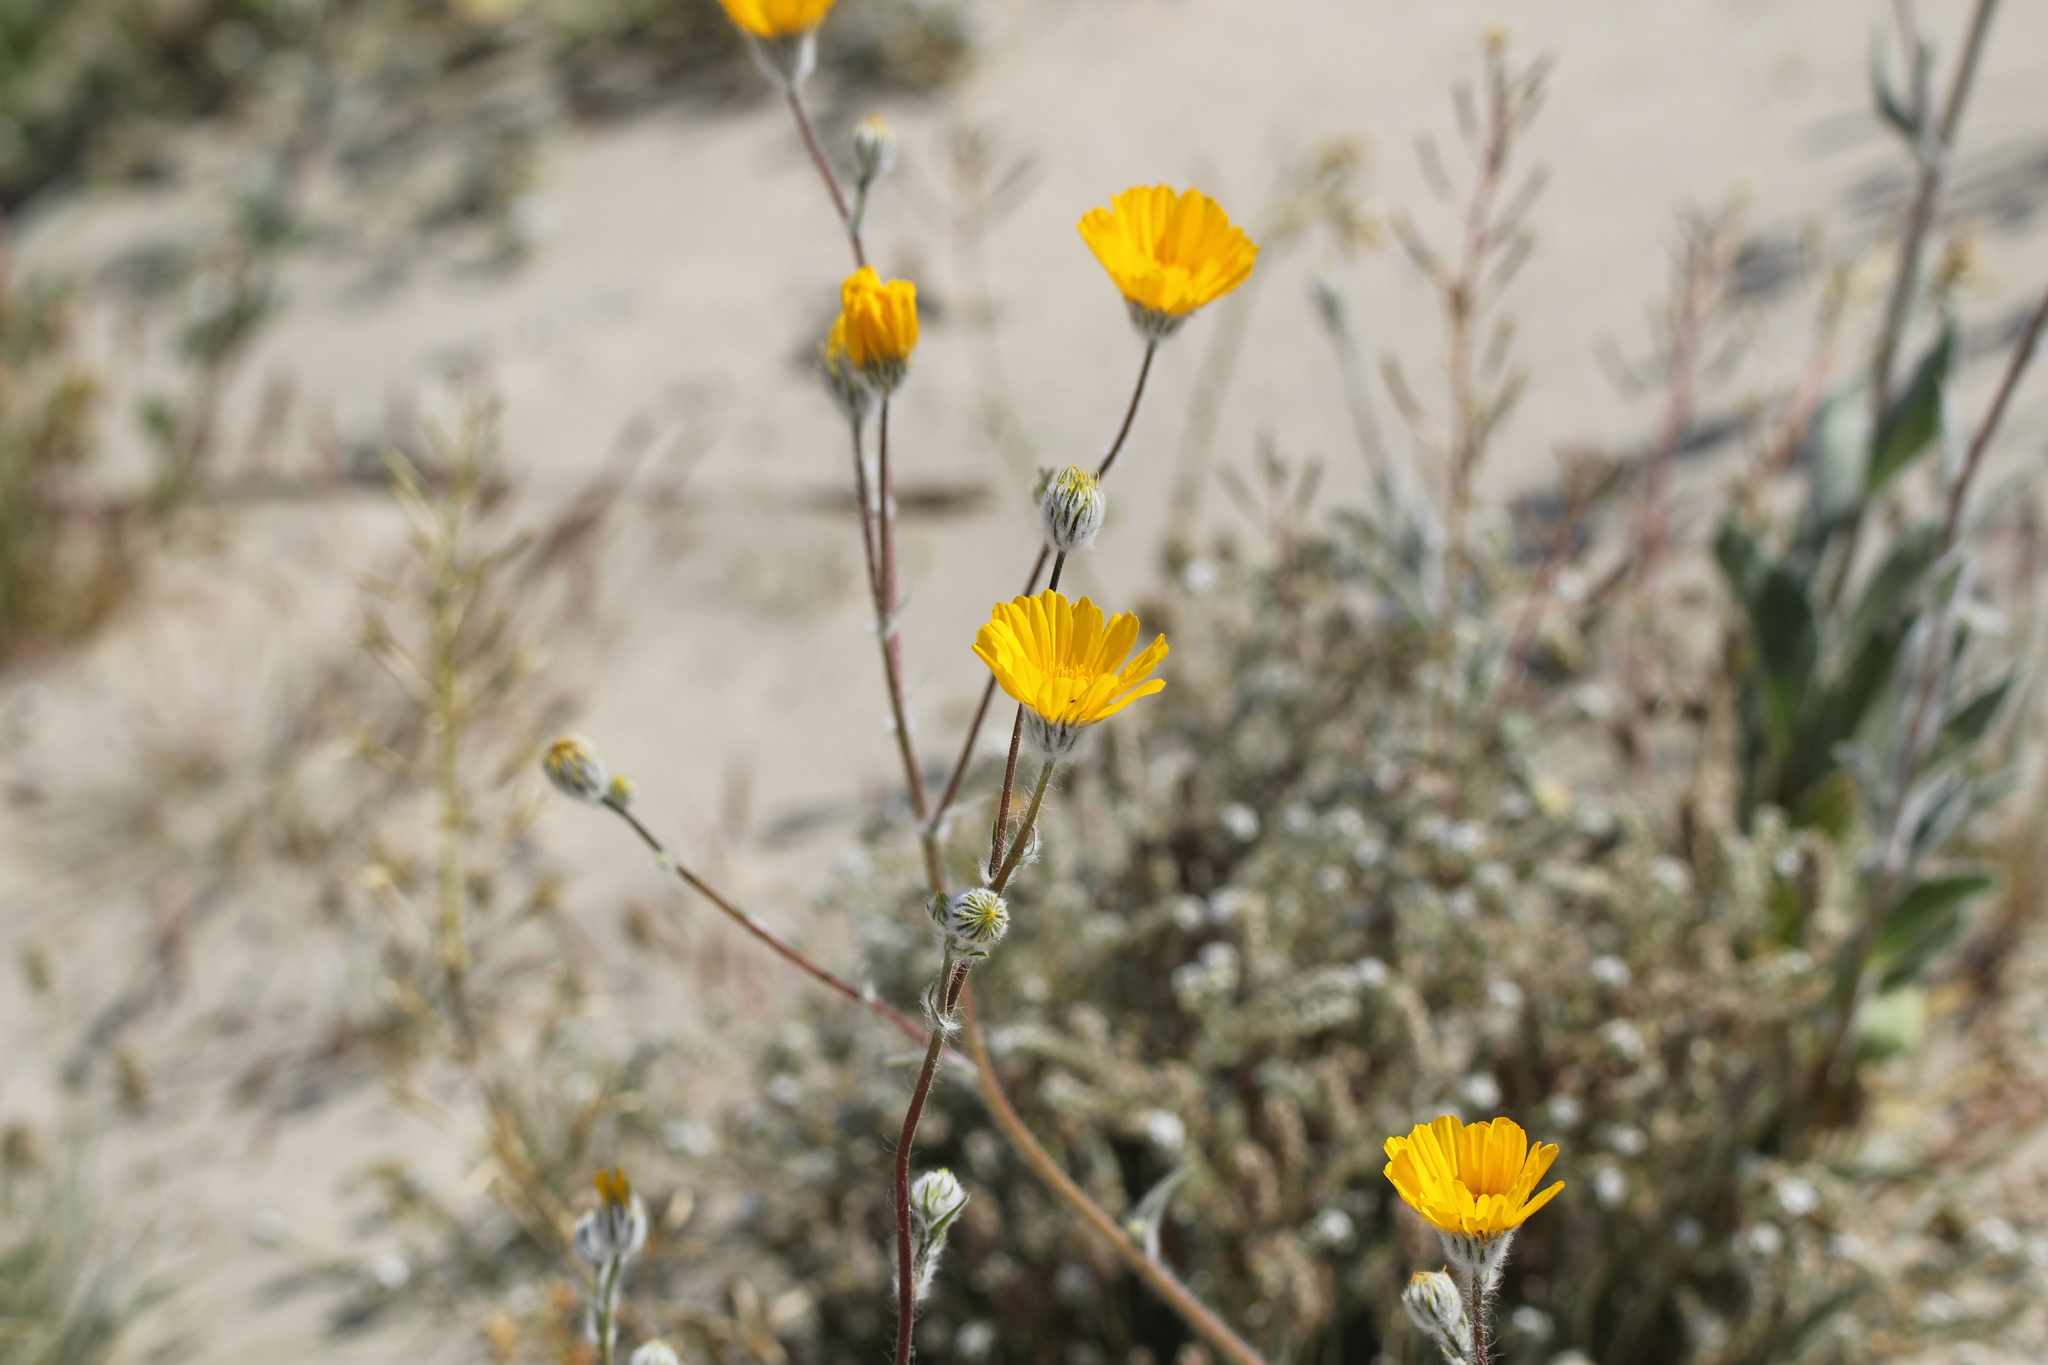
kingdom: Plantae
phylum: Tracheophyta
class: Magnoliopsida
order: Asterales
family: Asteraceae
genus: Geraea
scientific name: Geraea canescens
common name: Desert-gold
